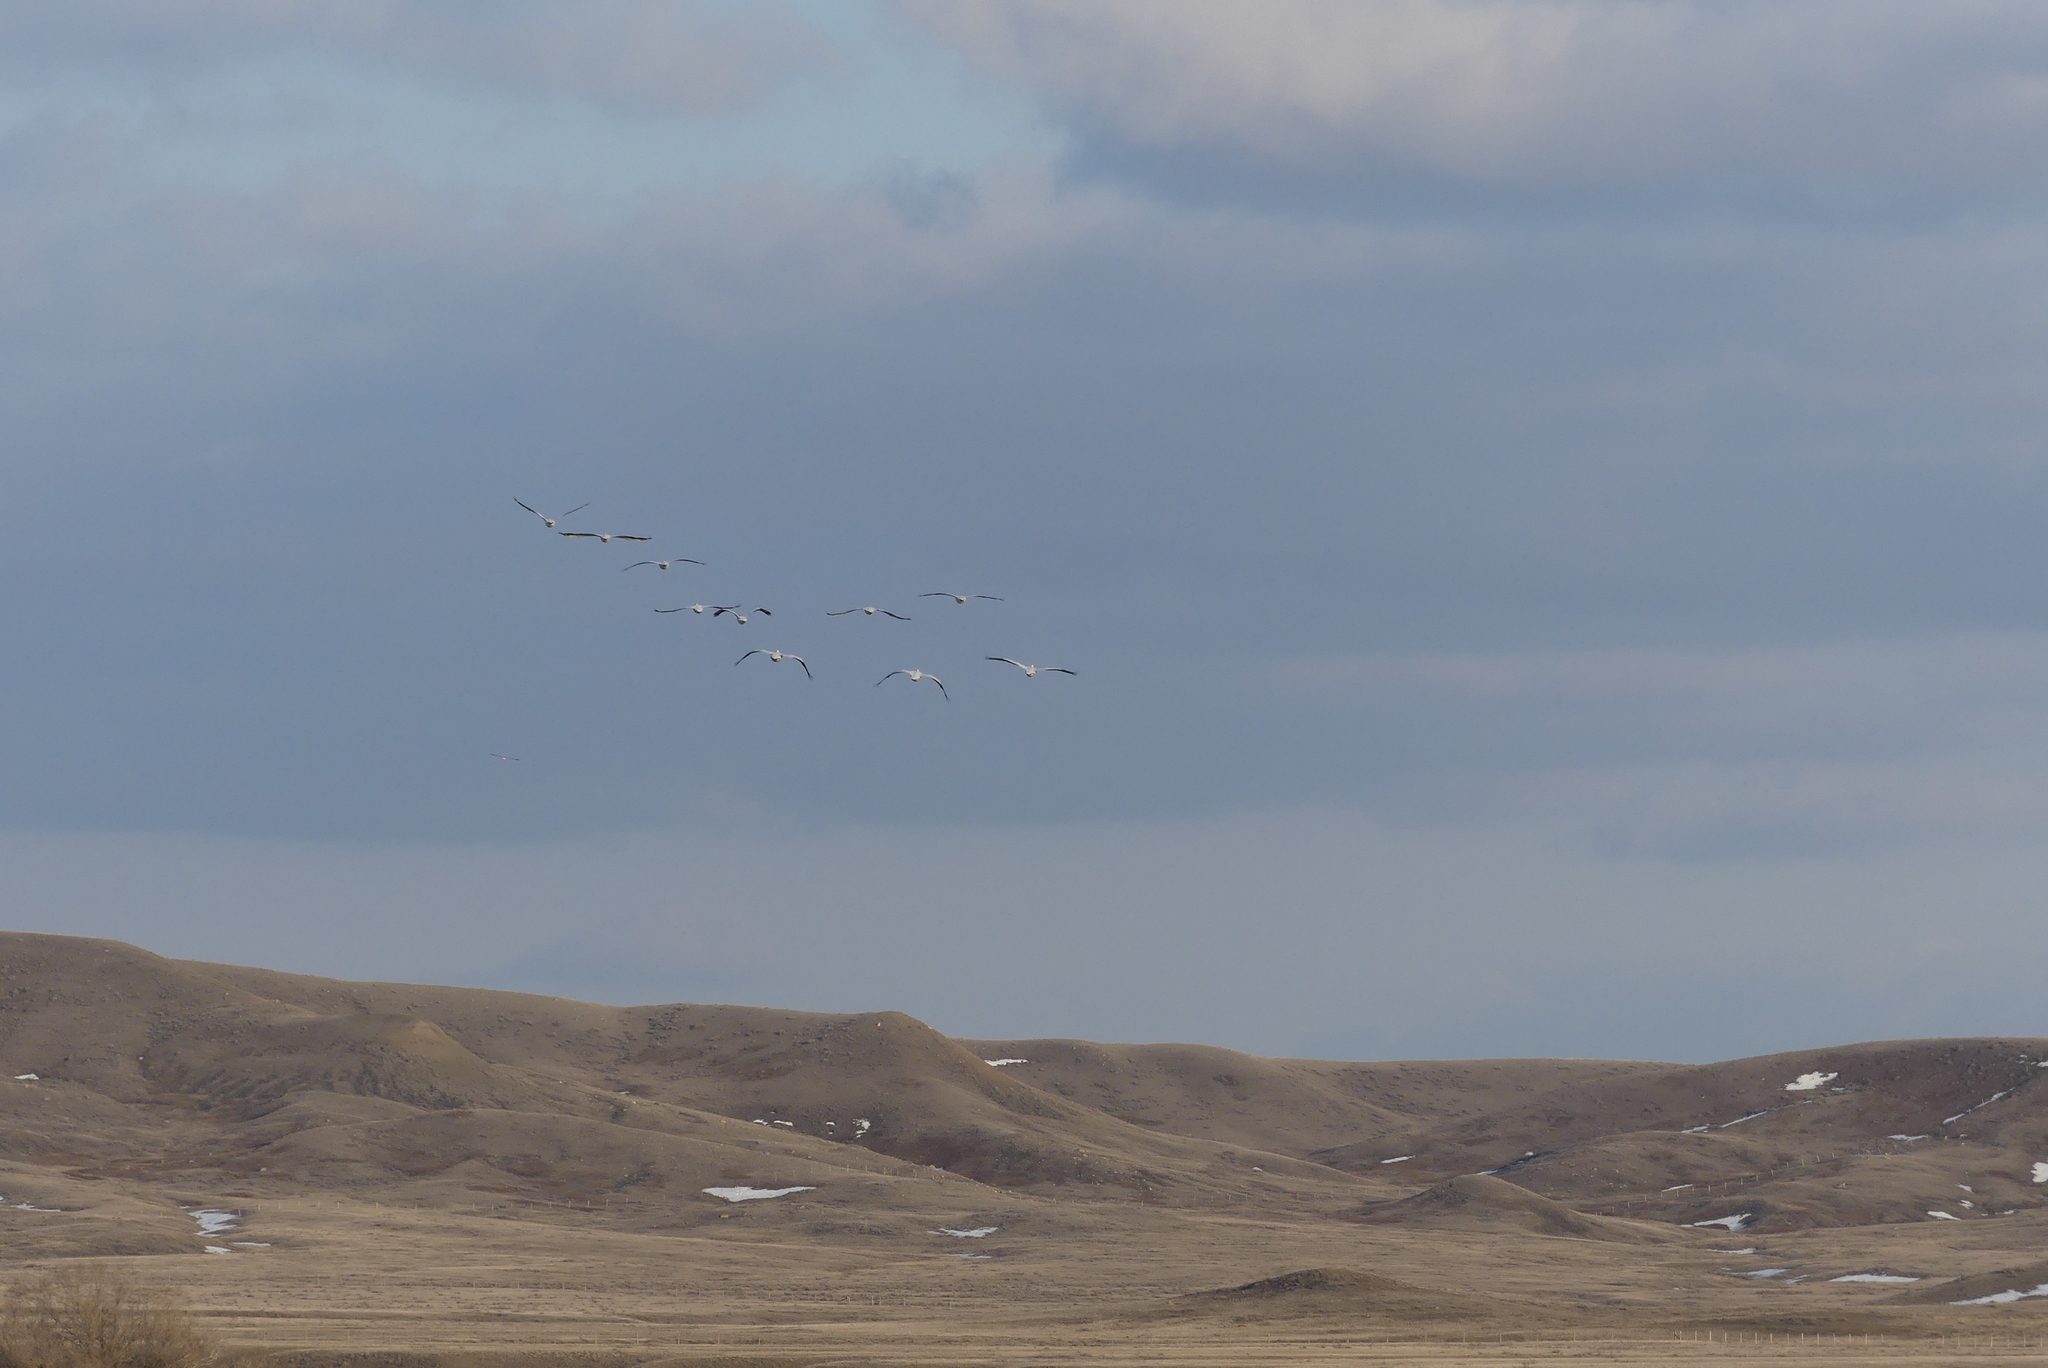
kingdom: Animalia
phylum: Chordata
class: Aves
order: Pelecaniformes
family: Pelecanidae
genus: Pelecanus
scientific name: Pelecanus erythrorhynchos
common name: American white pelican
